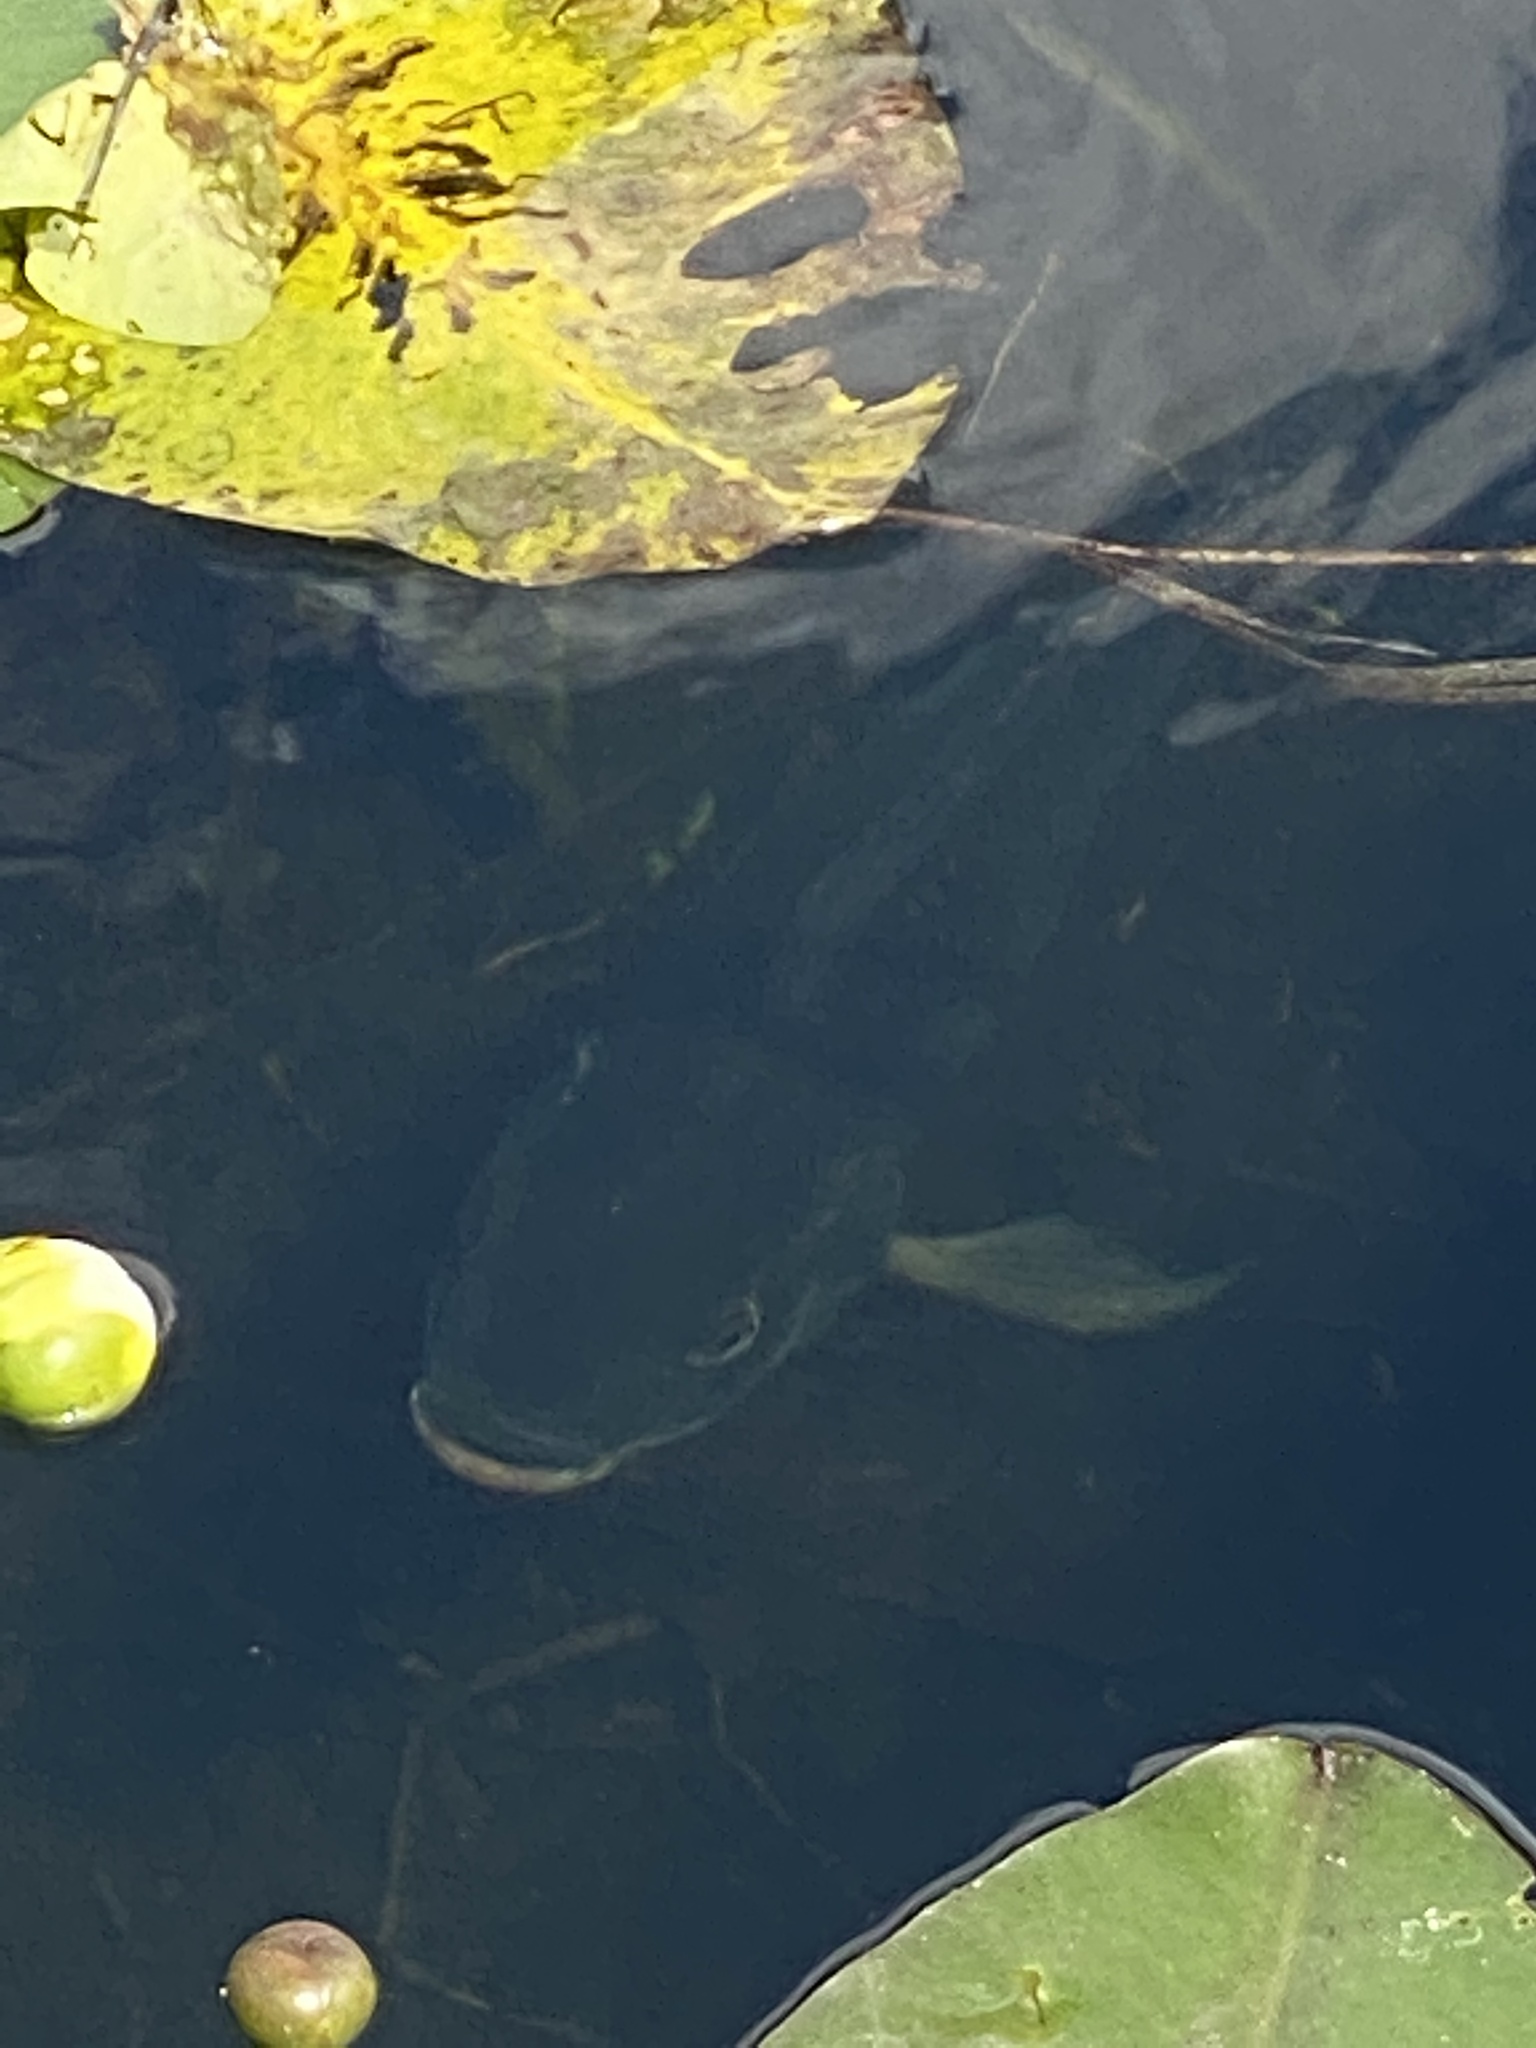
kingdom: Animalia
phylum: Chordata
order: Perciformes
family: Cichlidae
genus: Oreochromis
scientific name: Oreochromis aureus
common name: Blue tilapia
